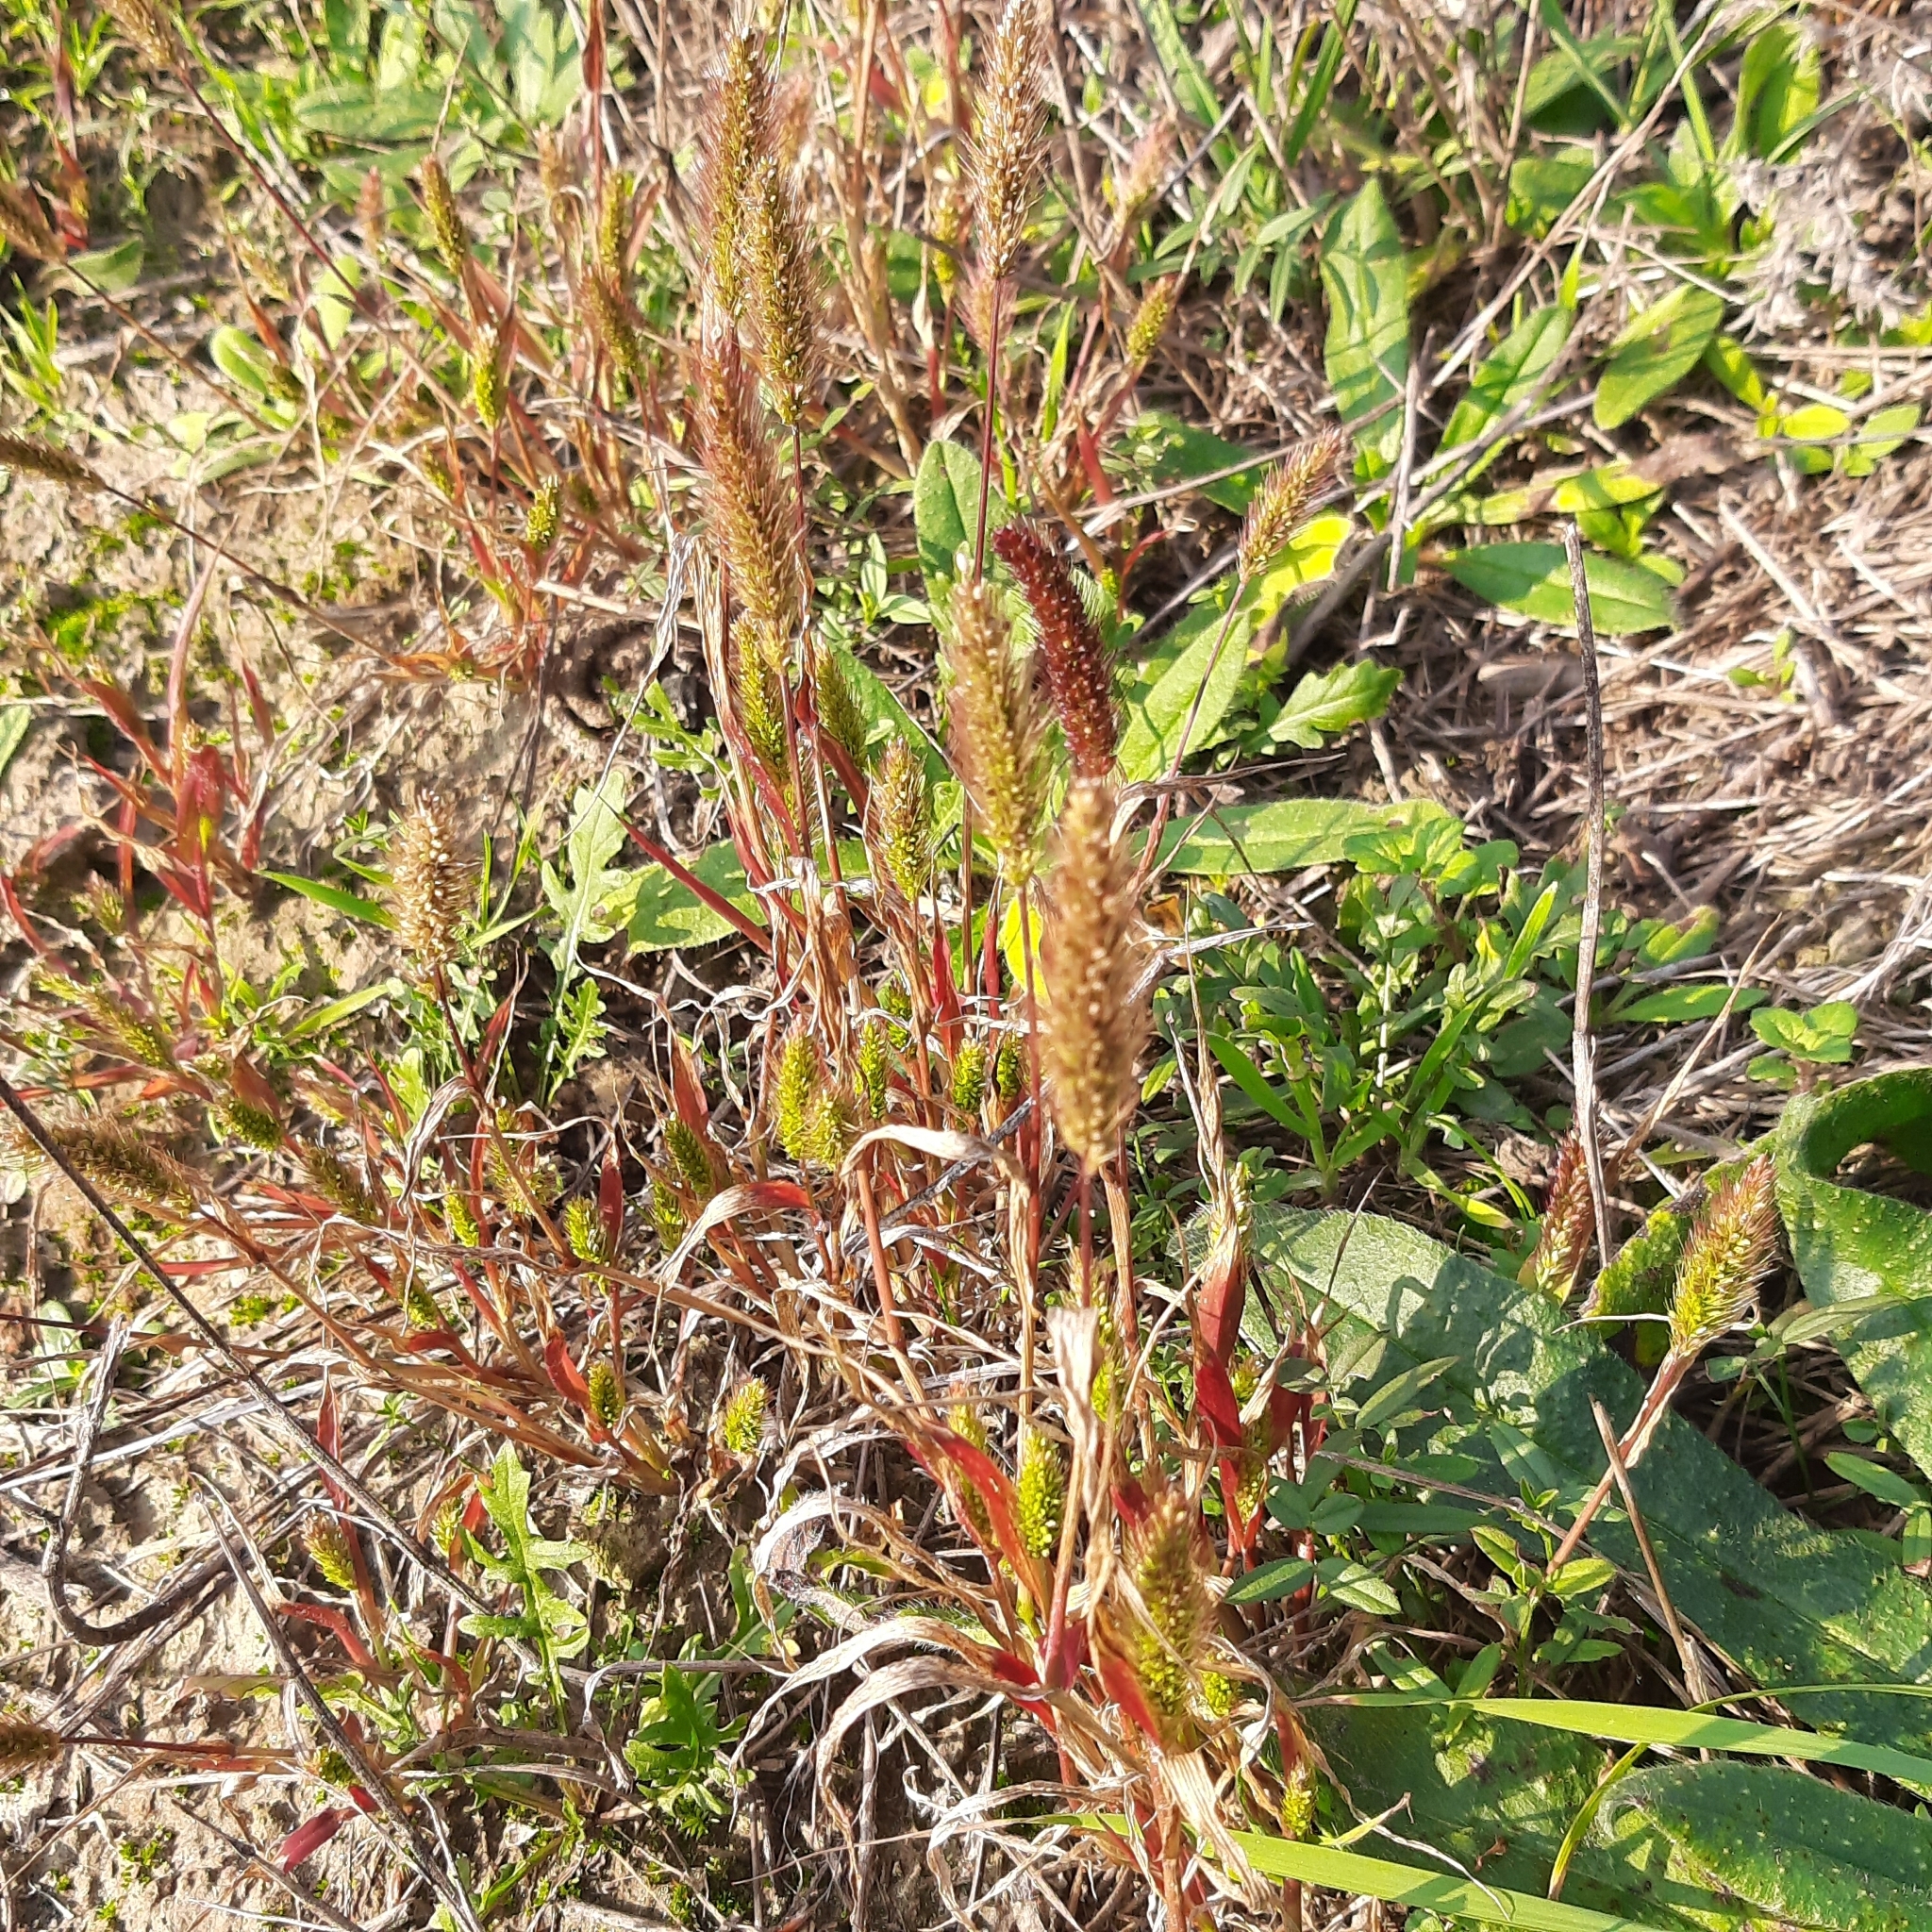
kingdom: Plantae
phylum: Tracheophyta
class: Liliopsida
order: Poales
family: Poaceae
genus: Setaria
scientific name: Setaria viridis
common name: Green bristlegrass
